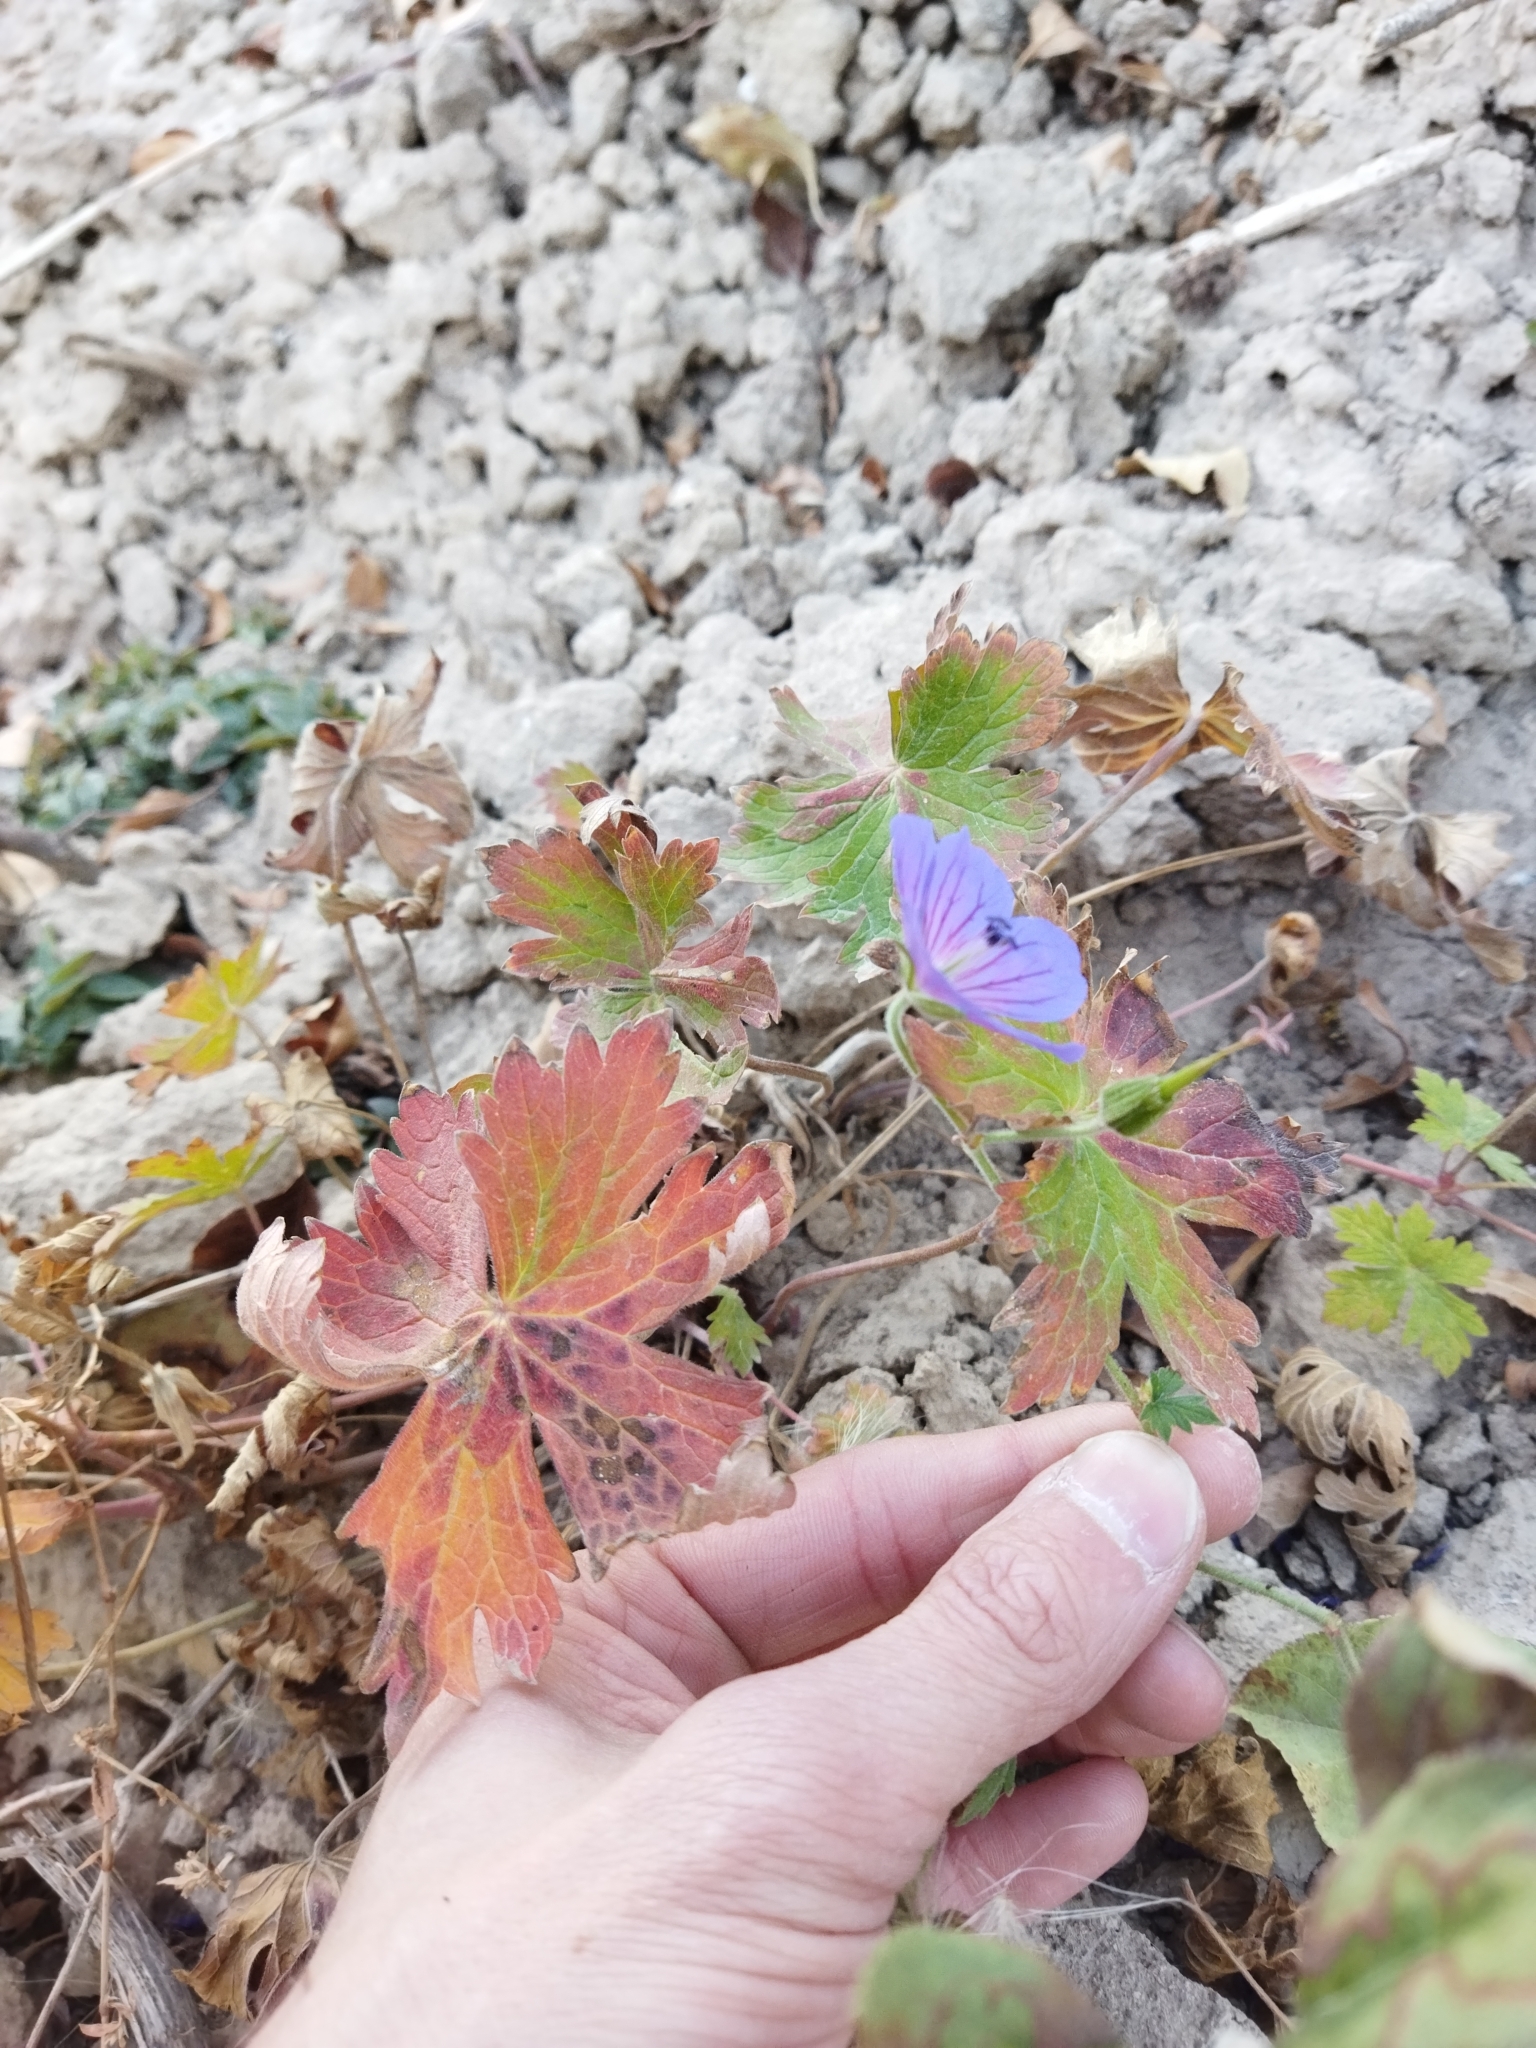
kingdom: Plantae
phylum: Tracheophyta
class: Magnoliopsida
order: Geraniales
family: Geraniaceae
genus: Geranium
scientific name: Geranium pratense
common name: Meadow crane's-bill
